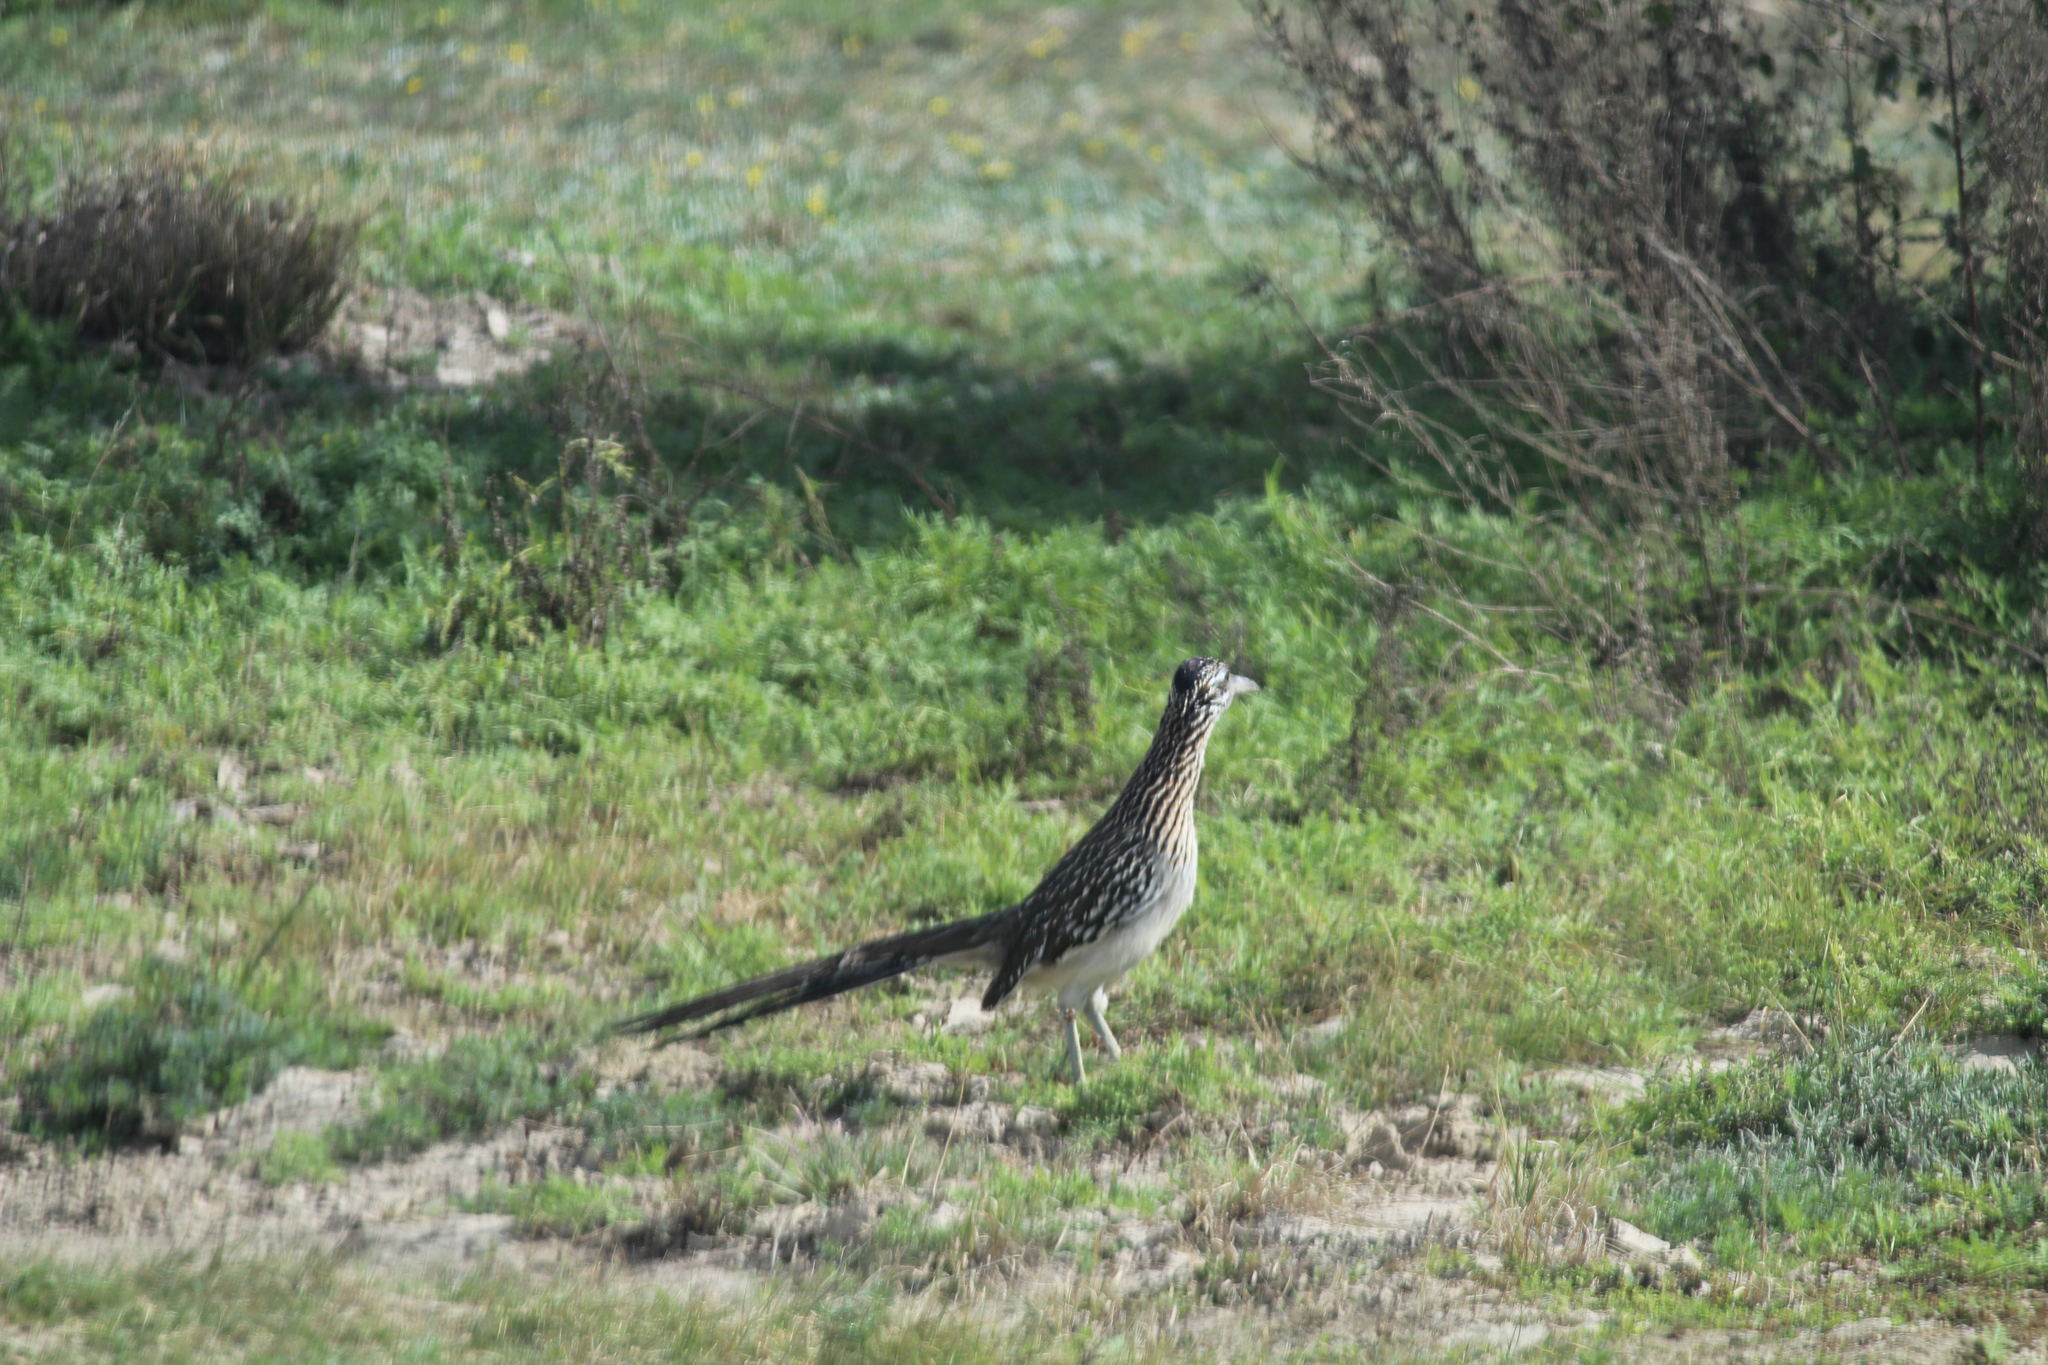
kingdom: Animalia
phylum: Chordata
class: Aves
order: Cuculiformes
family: Cuculidae
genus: Geococcyx
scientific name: Geococcyx californianus
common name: Greater roadrunner
